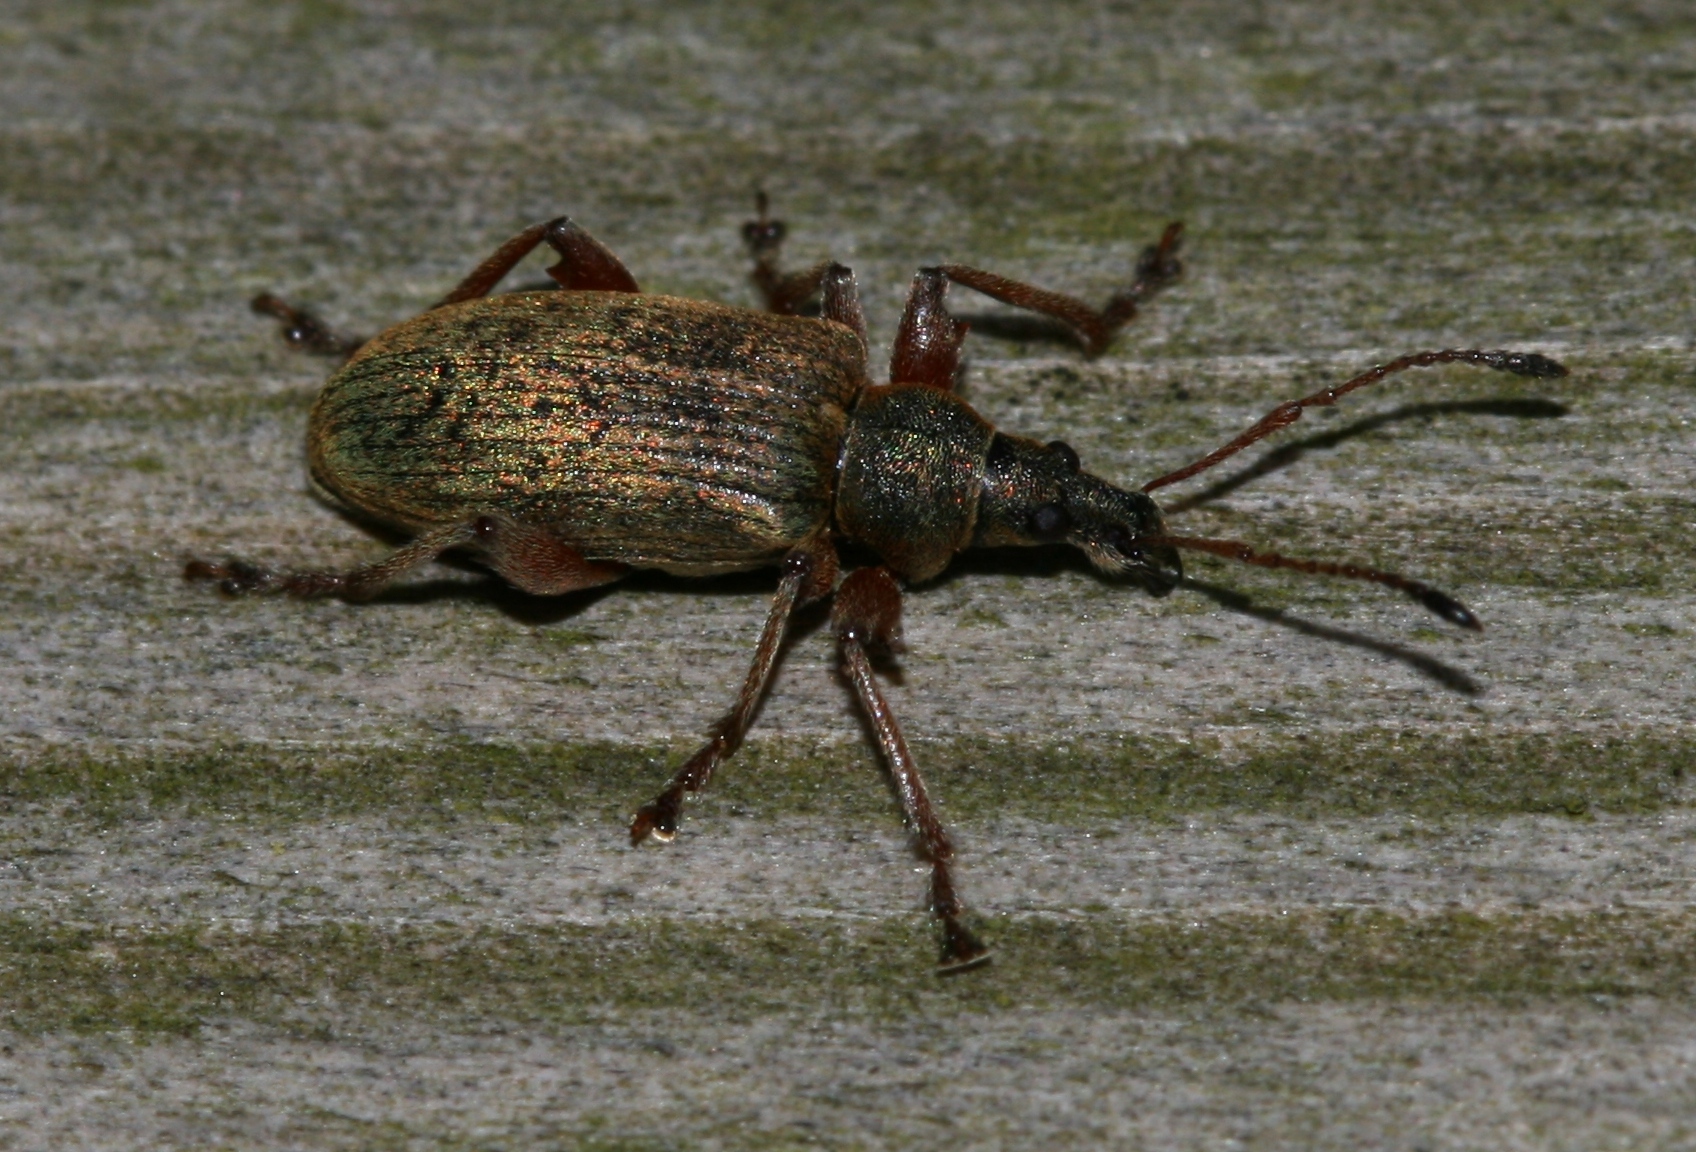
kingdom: Animalia
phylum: Arthropoda
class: Insecta
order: Coleoptera
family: Curculionidae
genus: Phyllobius
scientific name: Phyllobius glaucus
